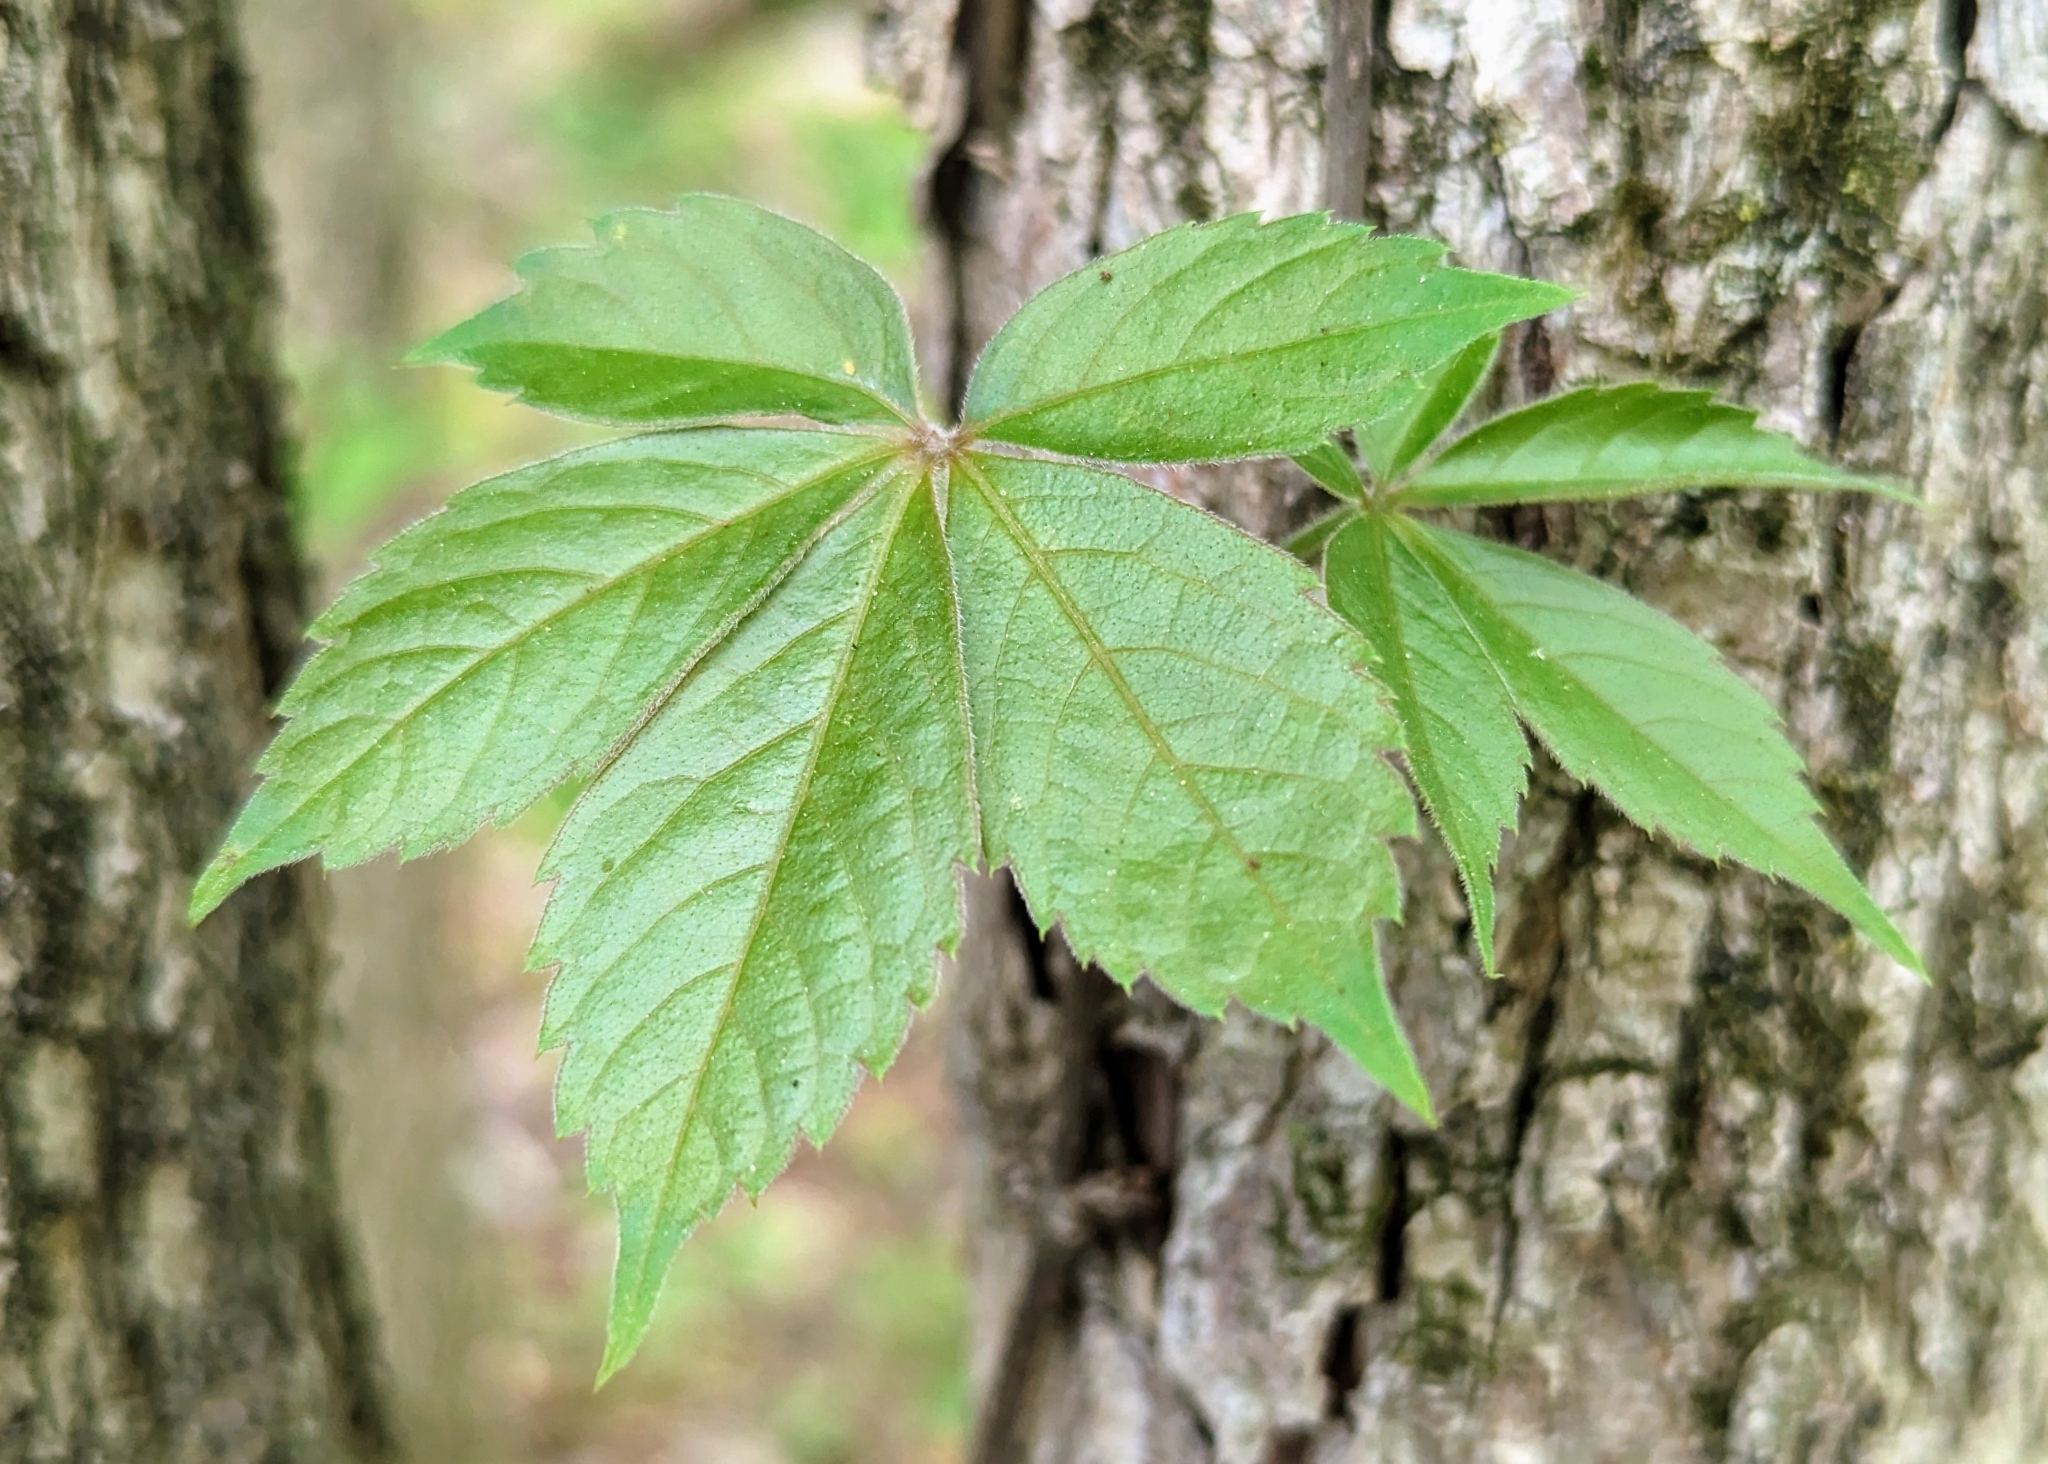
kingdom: Plantae
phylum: Tracheophyta
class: Magnoliopsida
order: Vitales
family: Vitaceae
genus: Parthenocissus
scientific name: Parthenocissus quinquefolia
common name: Virginia-creeper
